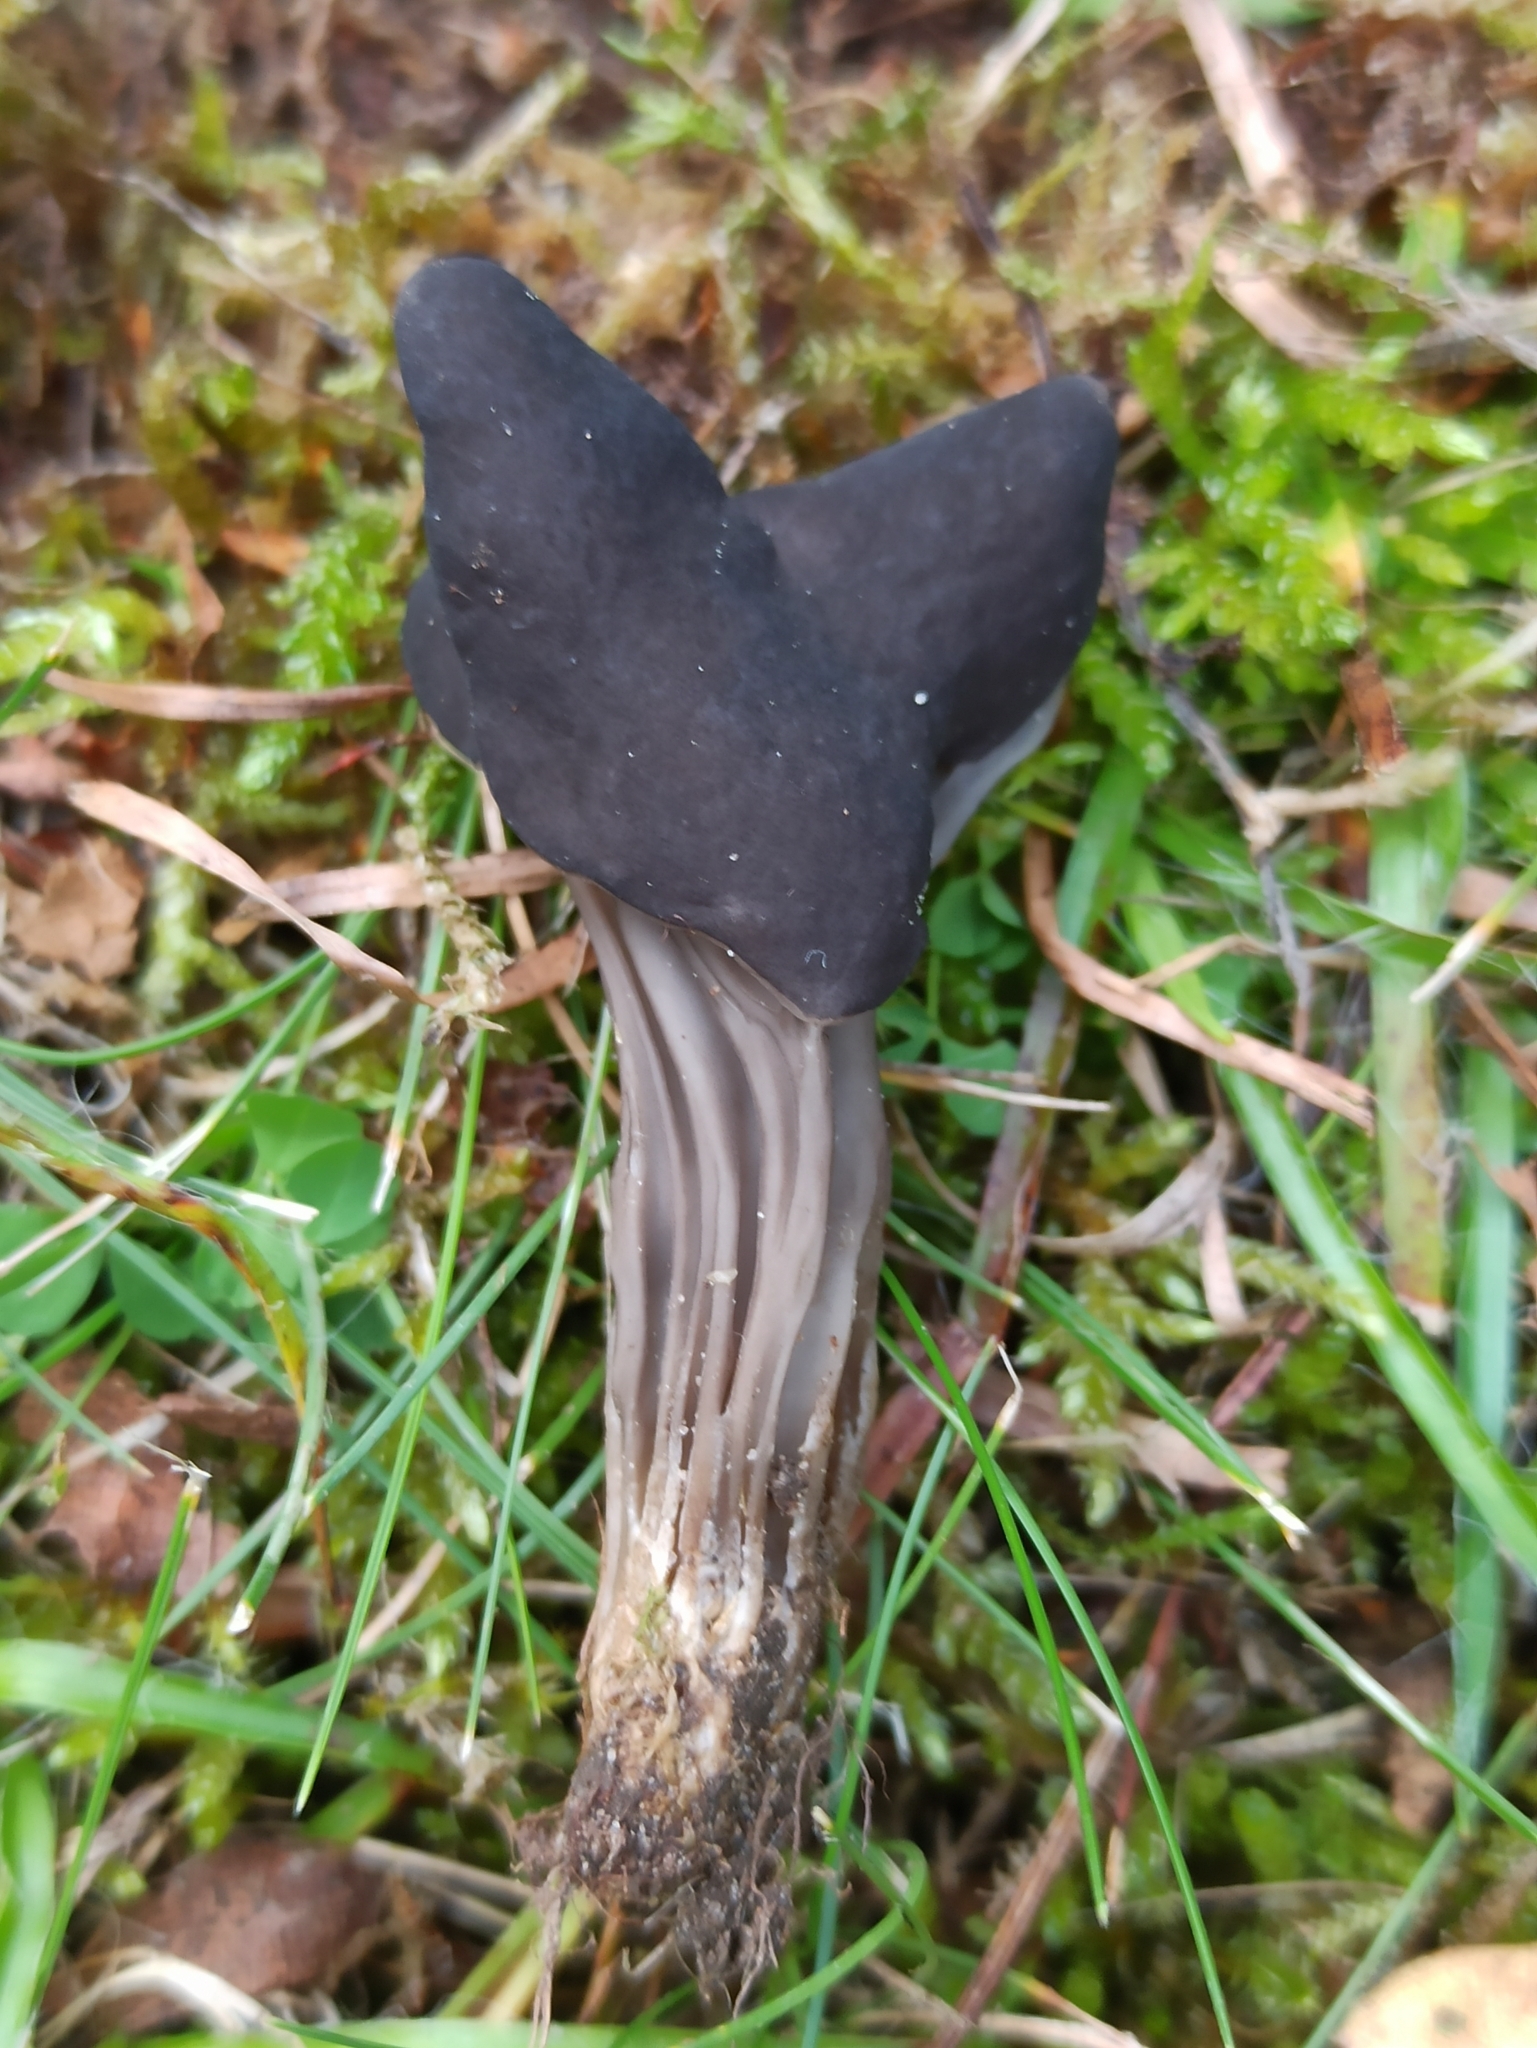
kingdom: Fungi
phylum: Ascomycota
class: Pezizomycetes
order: Pezizales
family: Helvellaceae
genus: Helvella
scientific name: Helvella lacunosa
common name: Elfin saddle
